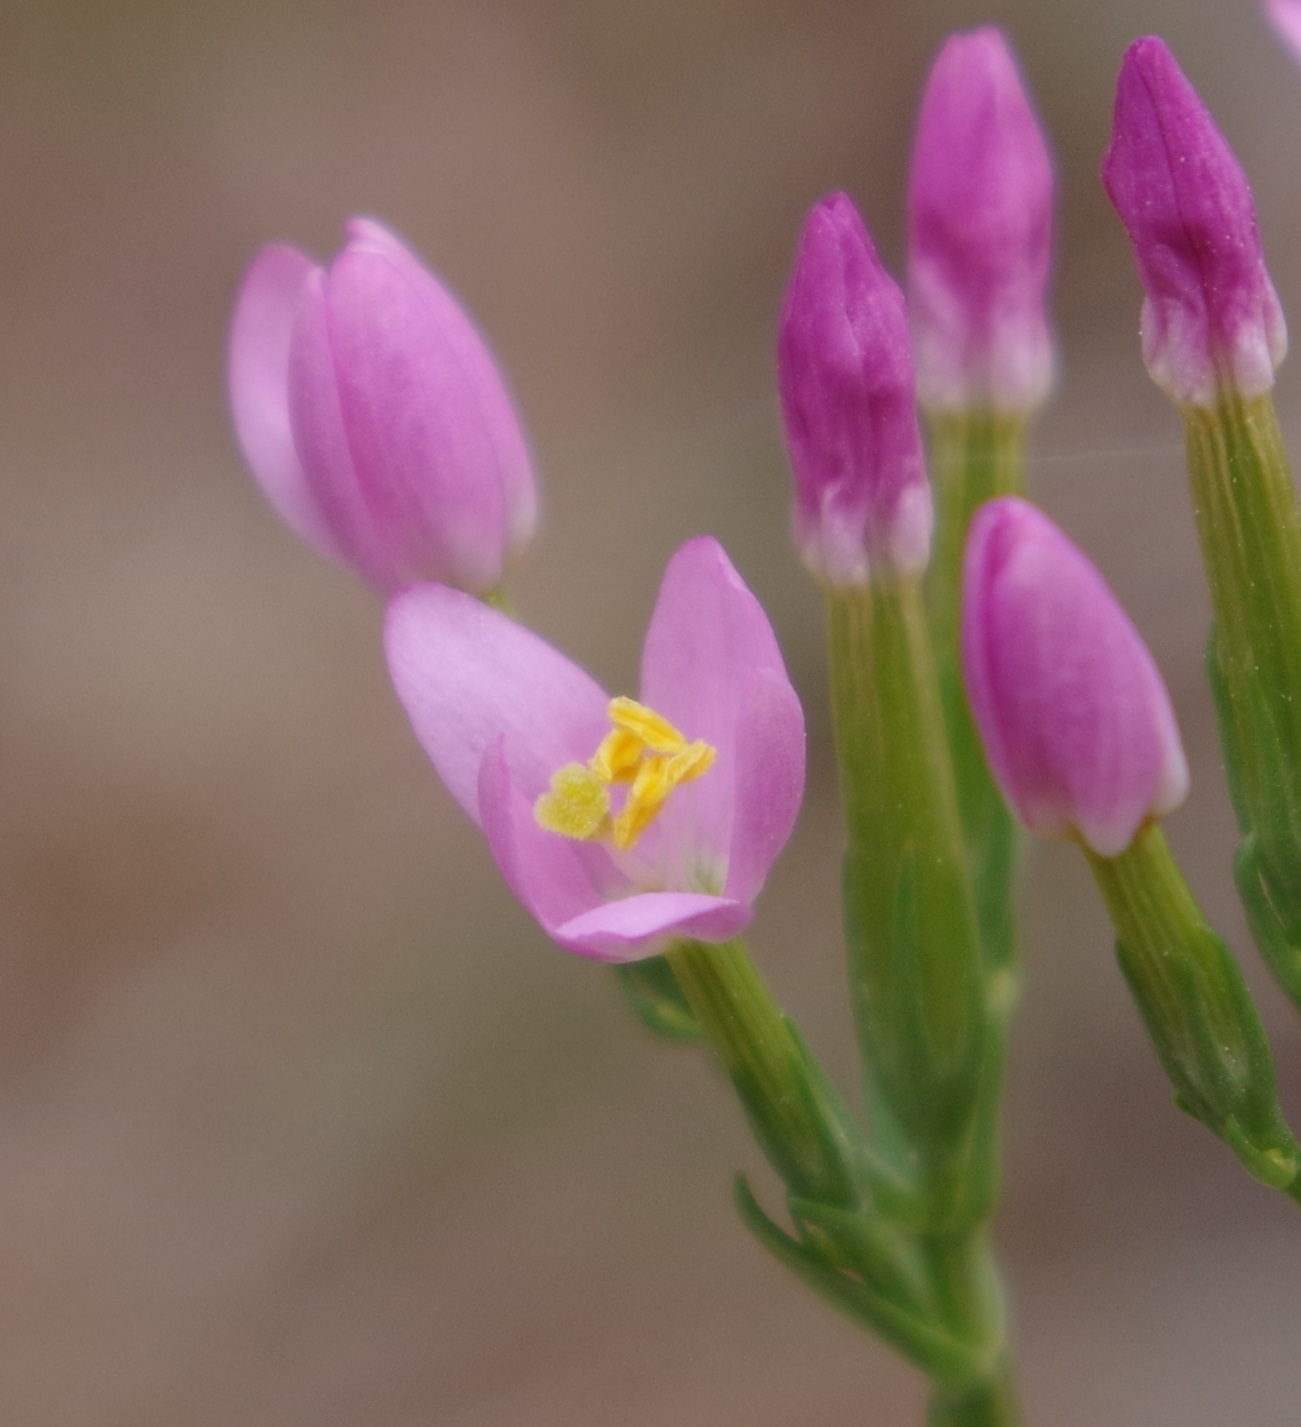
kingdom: Plantae
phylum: Tracheophyta
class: Magnoliopsida
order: Gentianales
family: Gentianaceae
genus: Centaurium
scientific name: Centaurium erythraea
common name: Common centaury
